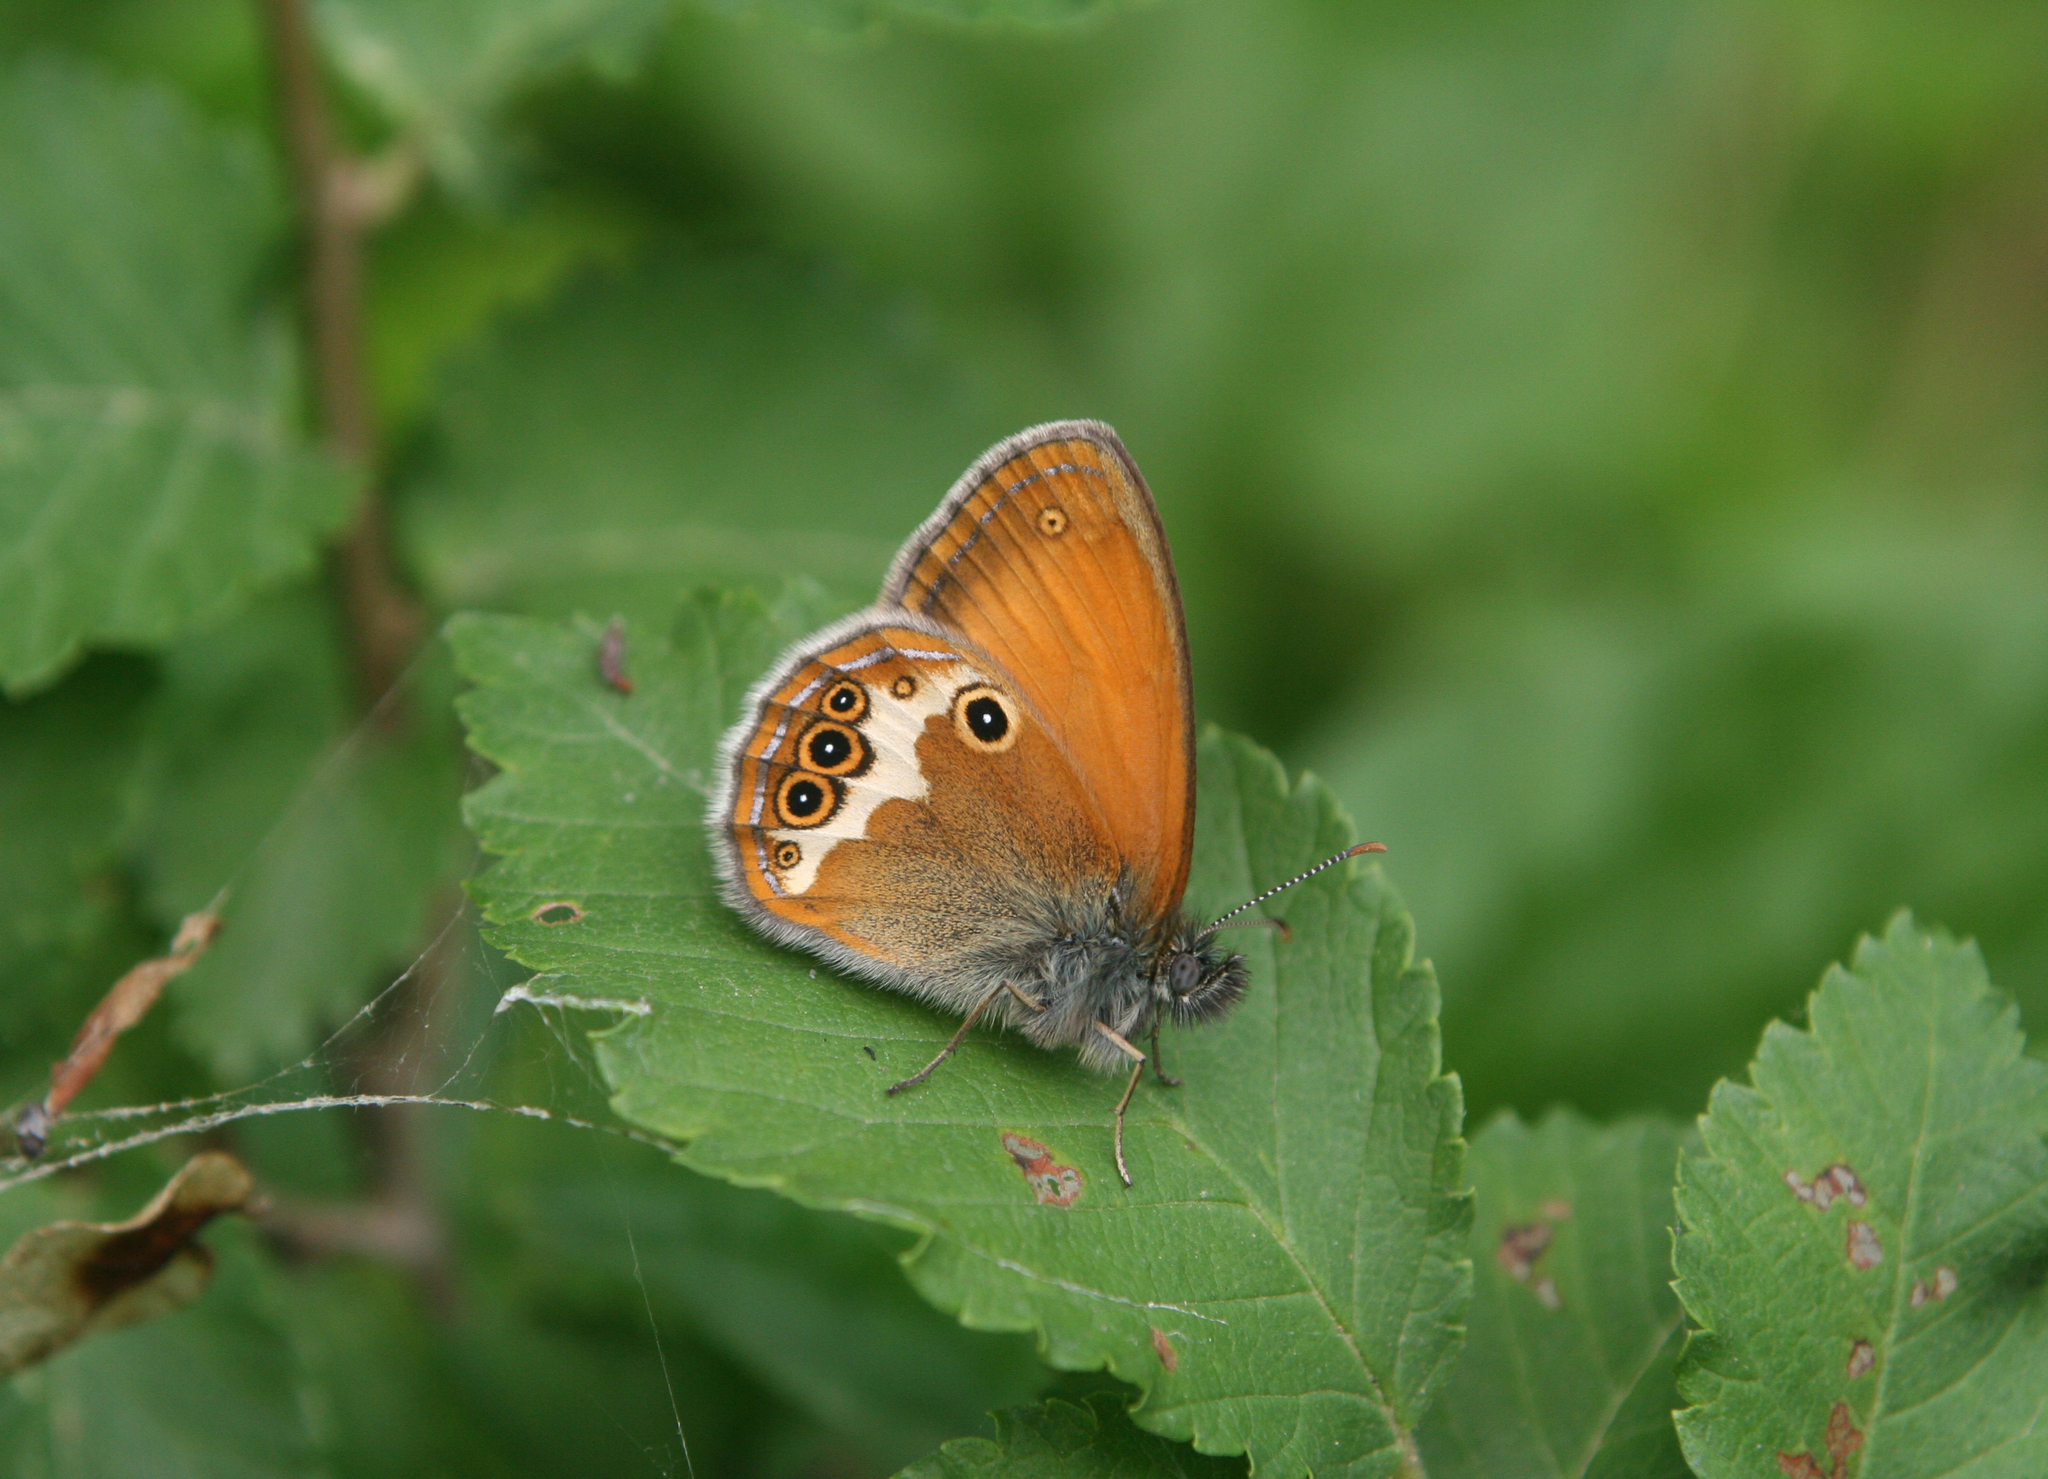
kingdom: Animalia
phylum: Arthropoda
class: Insecta
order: Lepidoptera
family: Nymphalidae
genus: Coenonympha
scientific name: Coenonympha arcania
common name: Pearly heath
